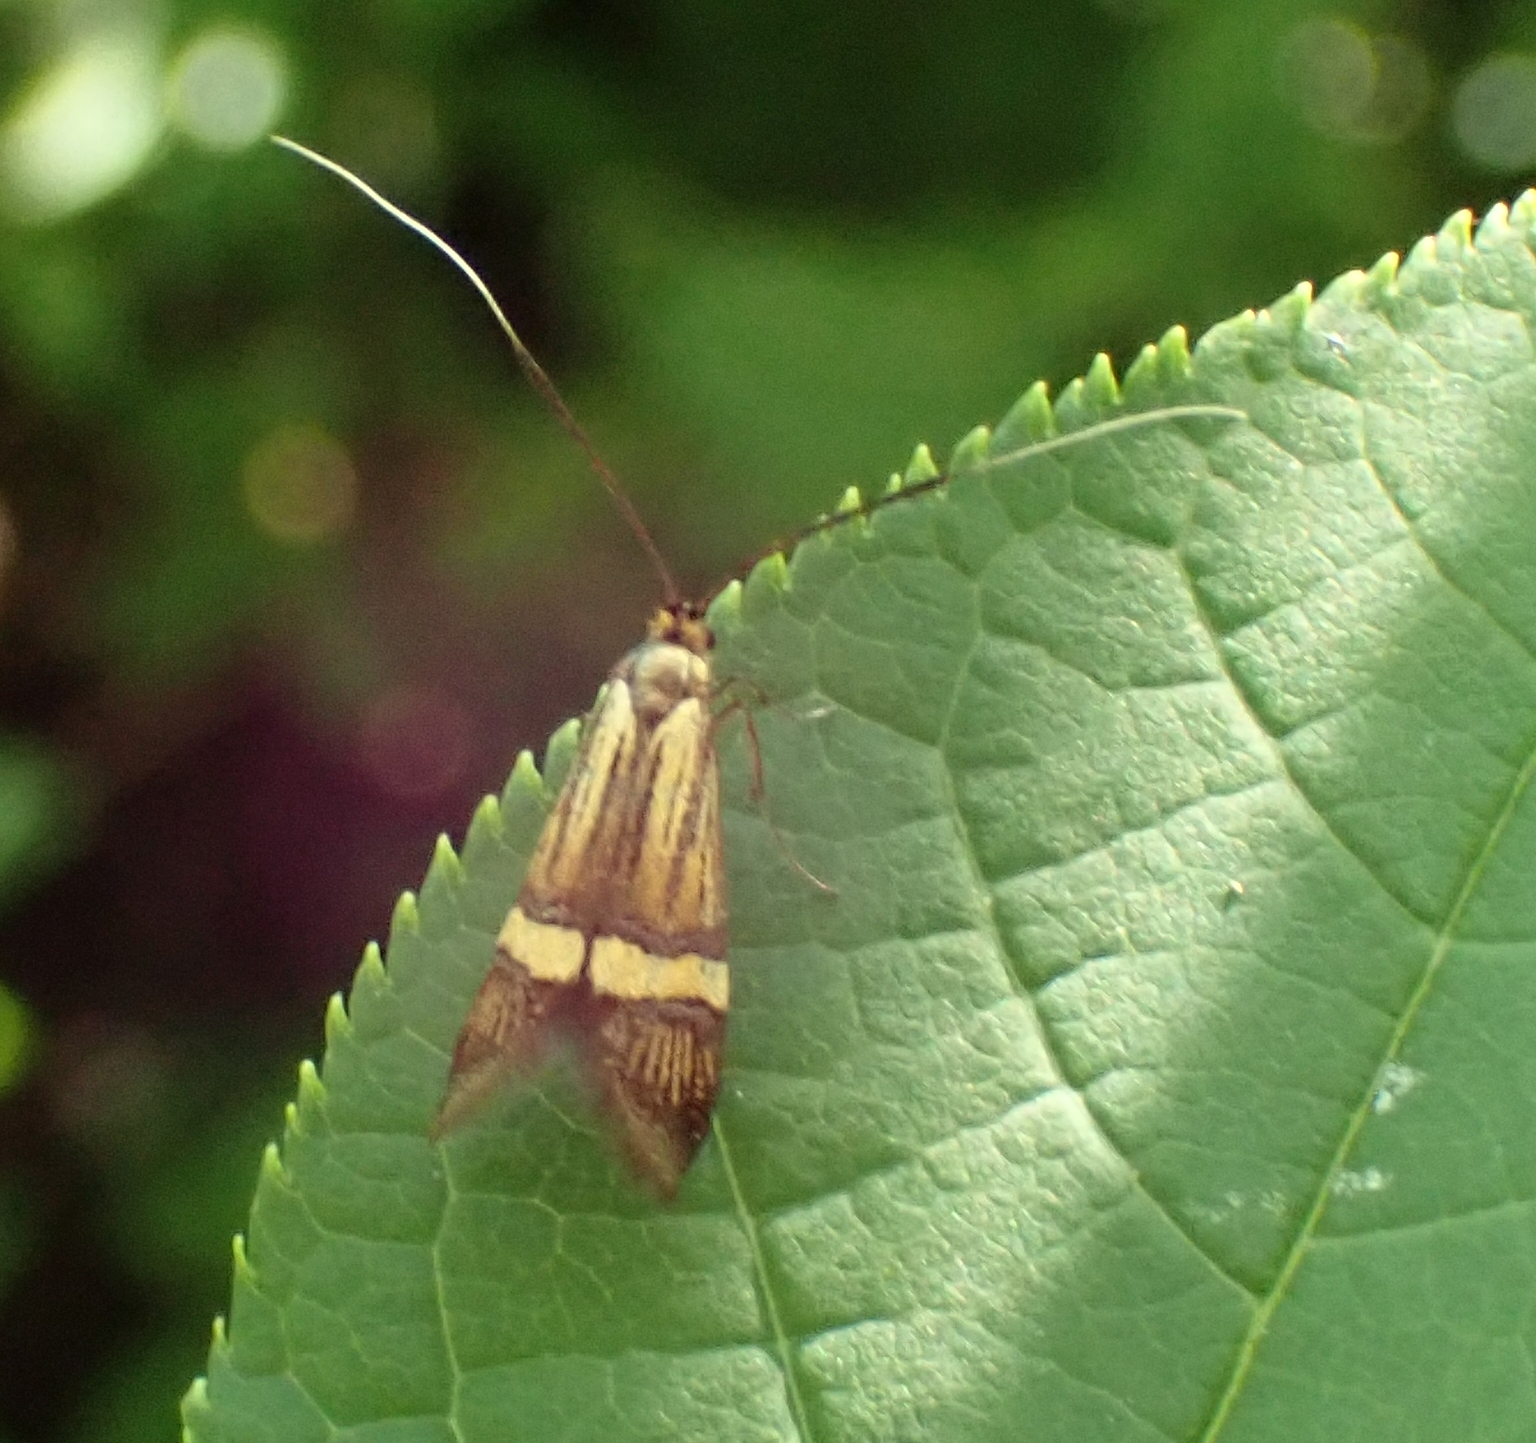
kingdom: Animalia
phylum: Arthropoda
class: Insecta
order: Lepidoptera
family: Adelidae
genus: Nemophora
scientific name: Nemophora
